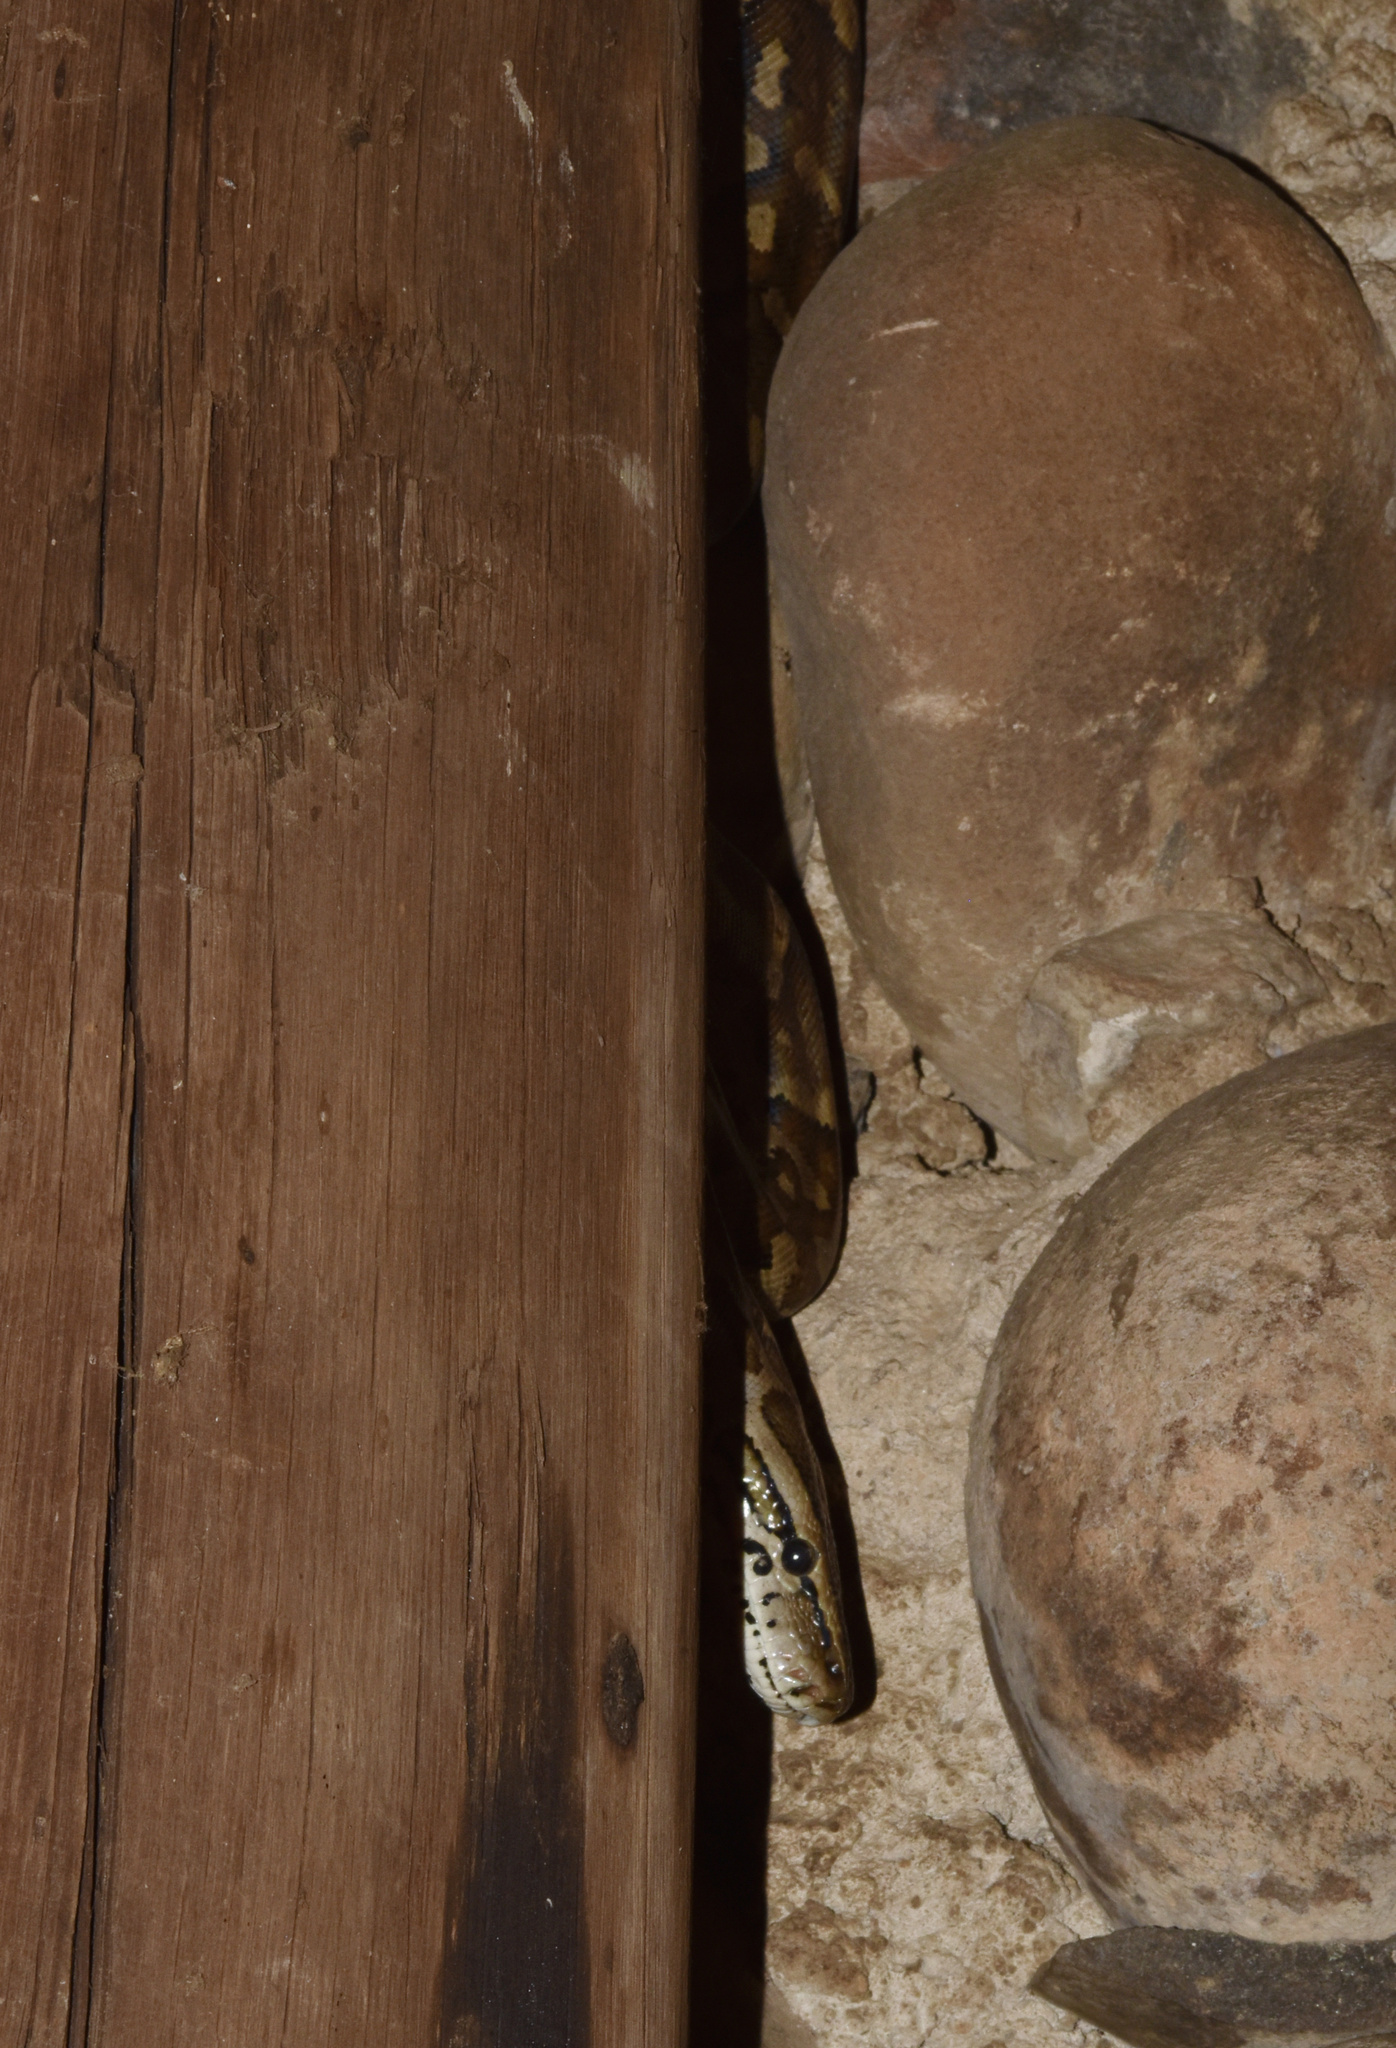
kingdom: Animalia
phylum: Chordata
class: Squamata
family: Pythonidae
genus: Python
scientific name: Python natalensis
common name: Southern african rock python
